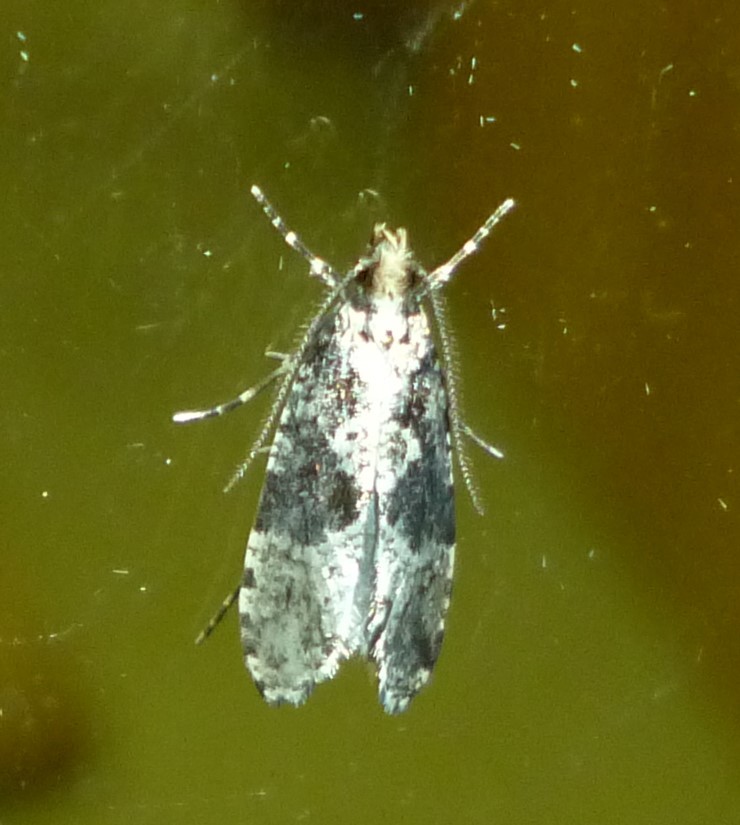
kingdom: Animalia
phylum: Arthropoda
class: Insecta
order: Lepidoptera
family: Tineidae
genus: Scardiella
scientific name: Scardiella approximatella
